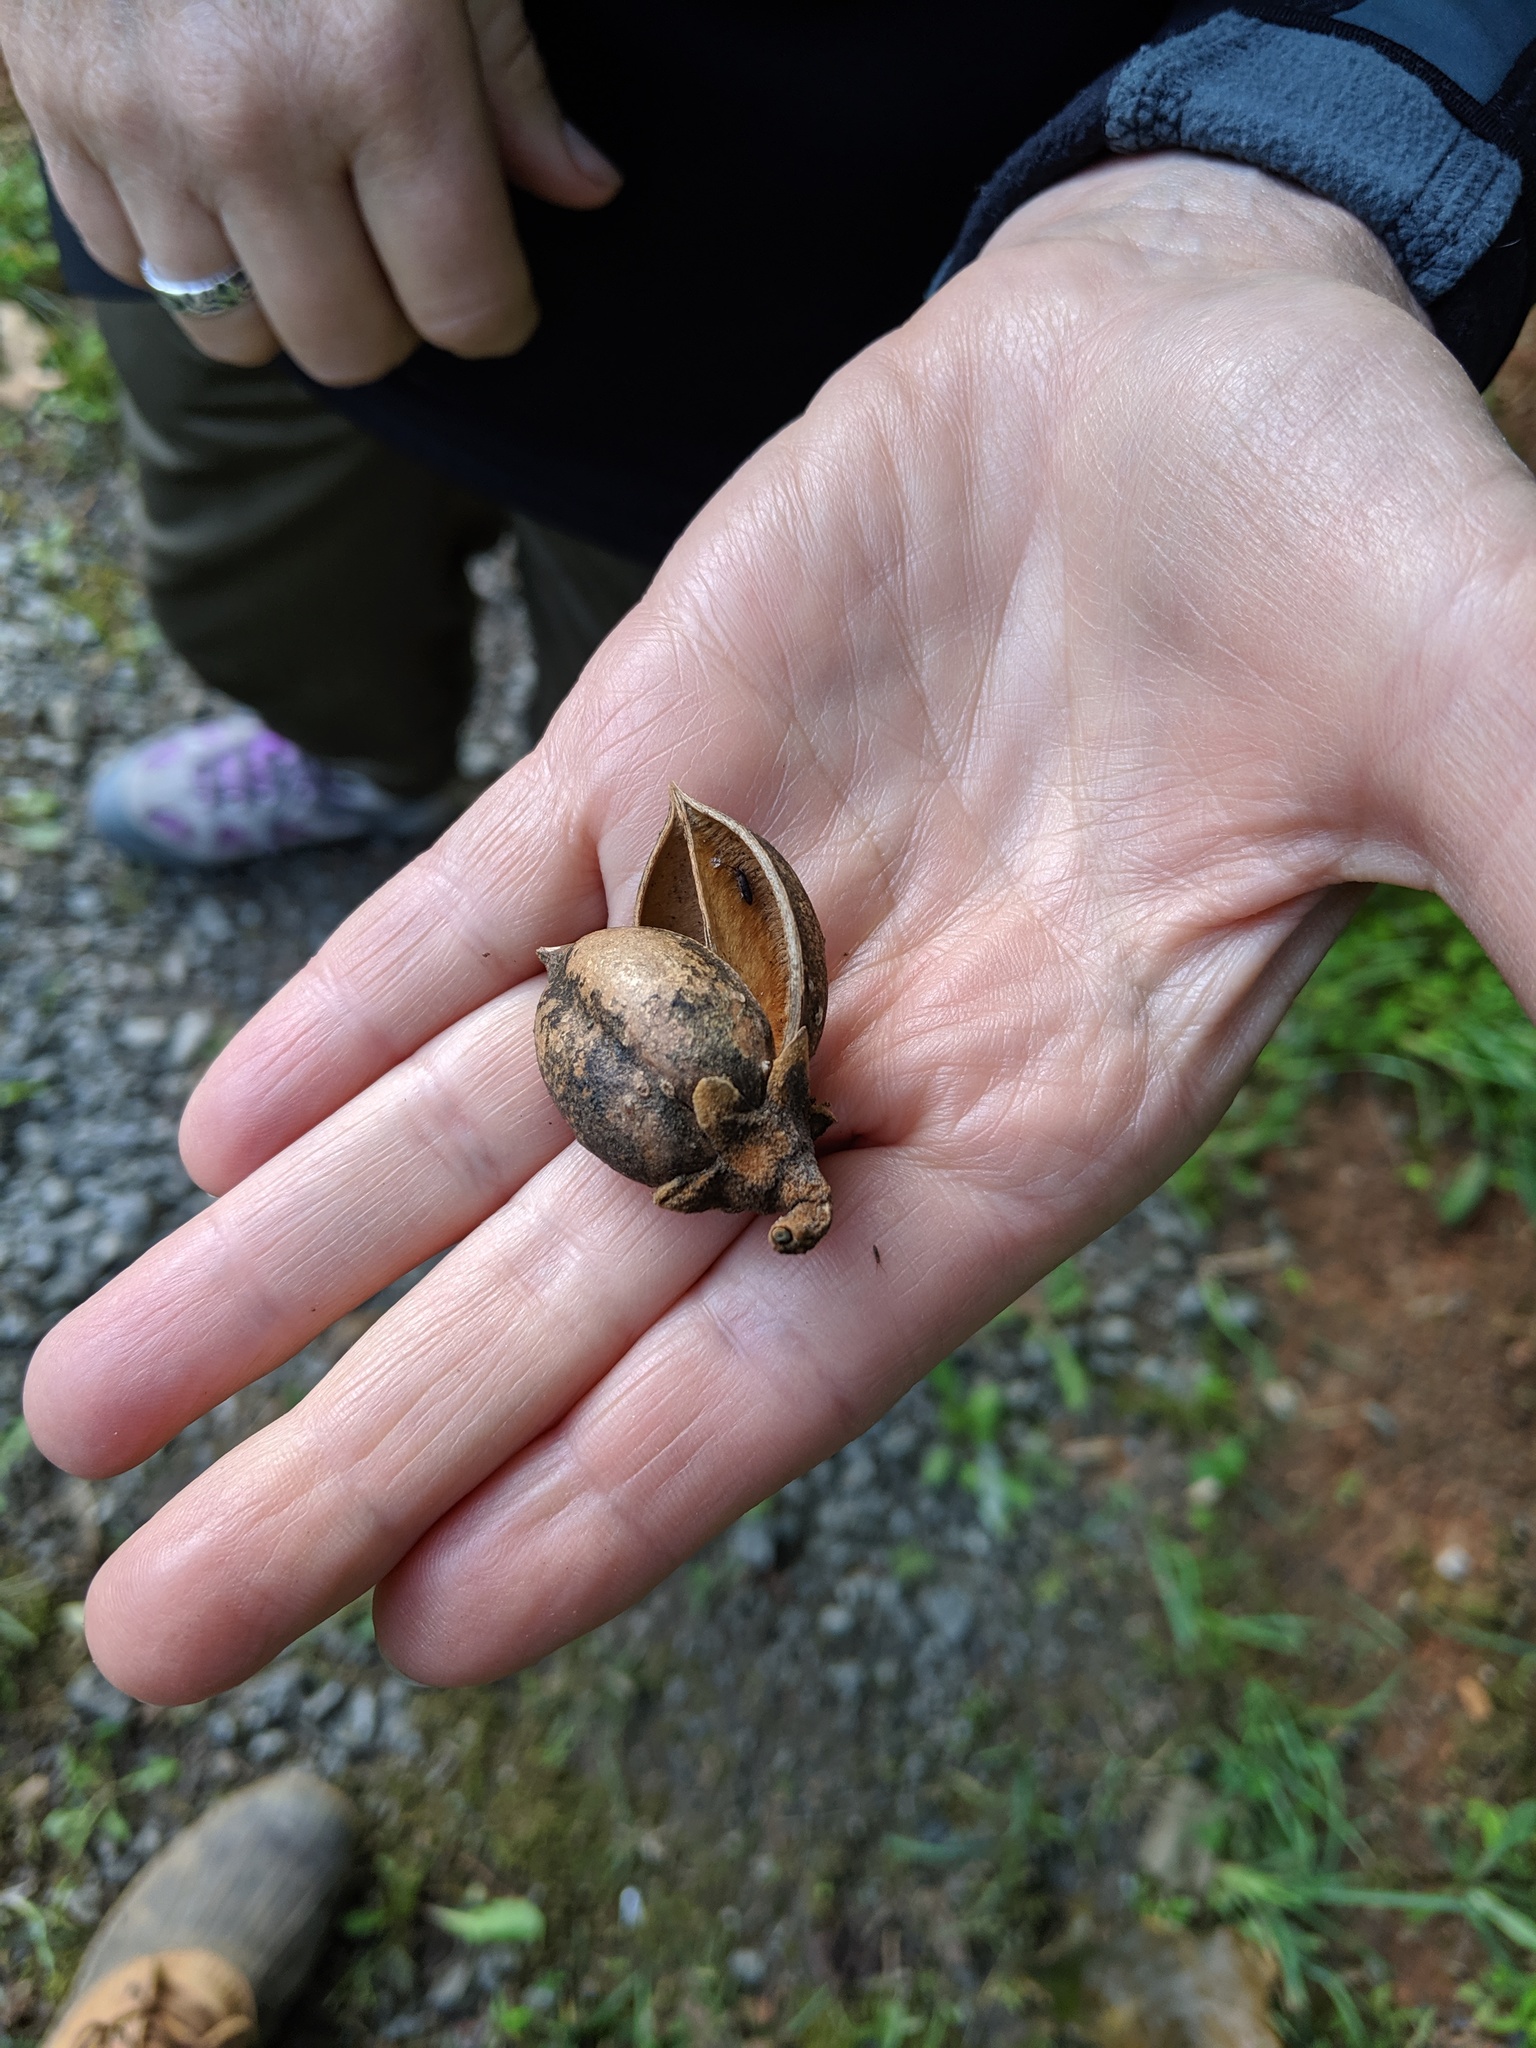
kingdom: Plantae
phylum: Tracheophyta
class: Magnoliopsida
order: Lamiales
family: Paulowniaceae
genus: Paulownia
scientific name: Paulownia tomentosa
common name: Foxglove-tree
